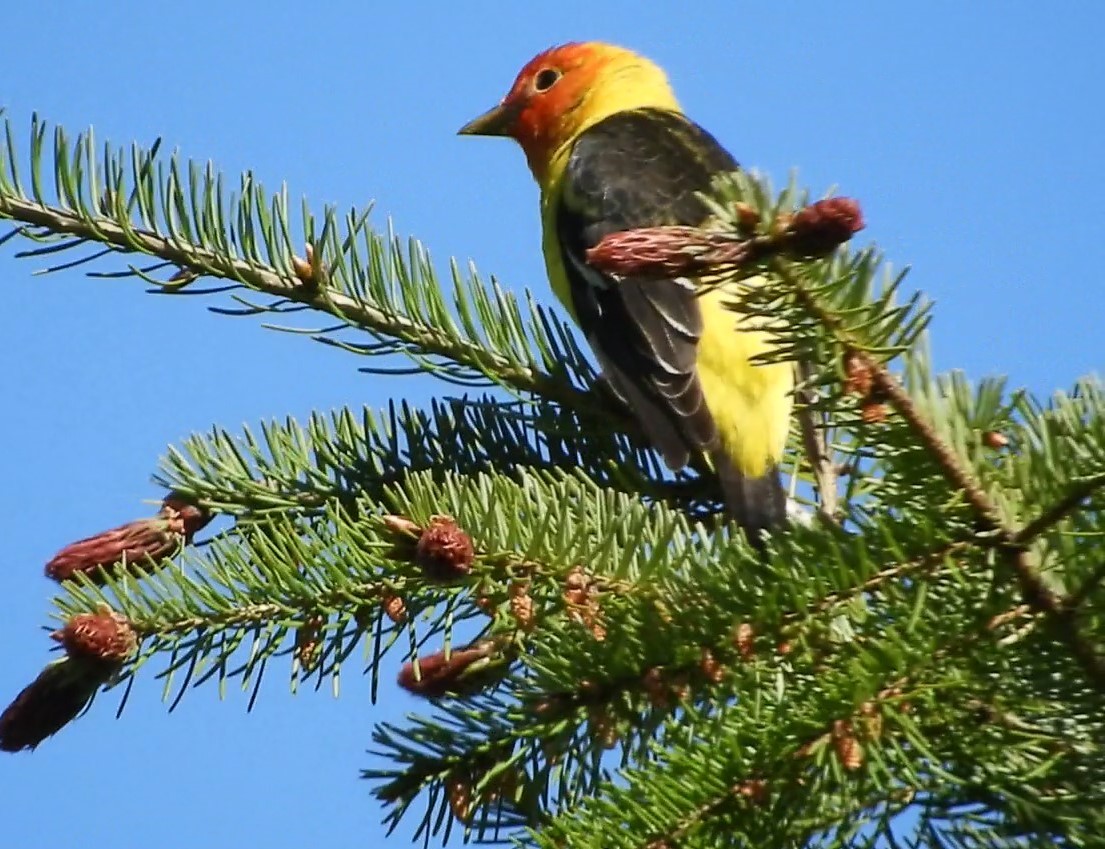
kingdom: Animalia
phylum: Chordata
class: Aves
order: Passeriformes
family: Cardinalidae
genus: Piranga
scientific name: Piranga ludoviciana
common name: Western tanager
